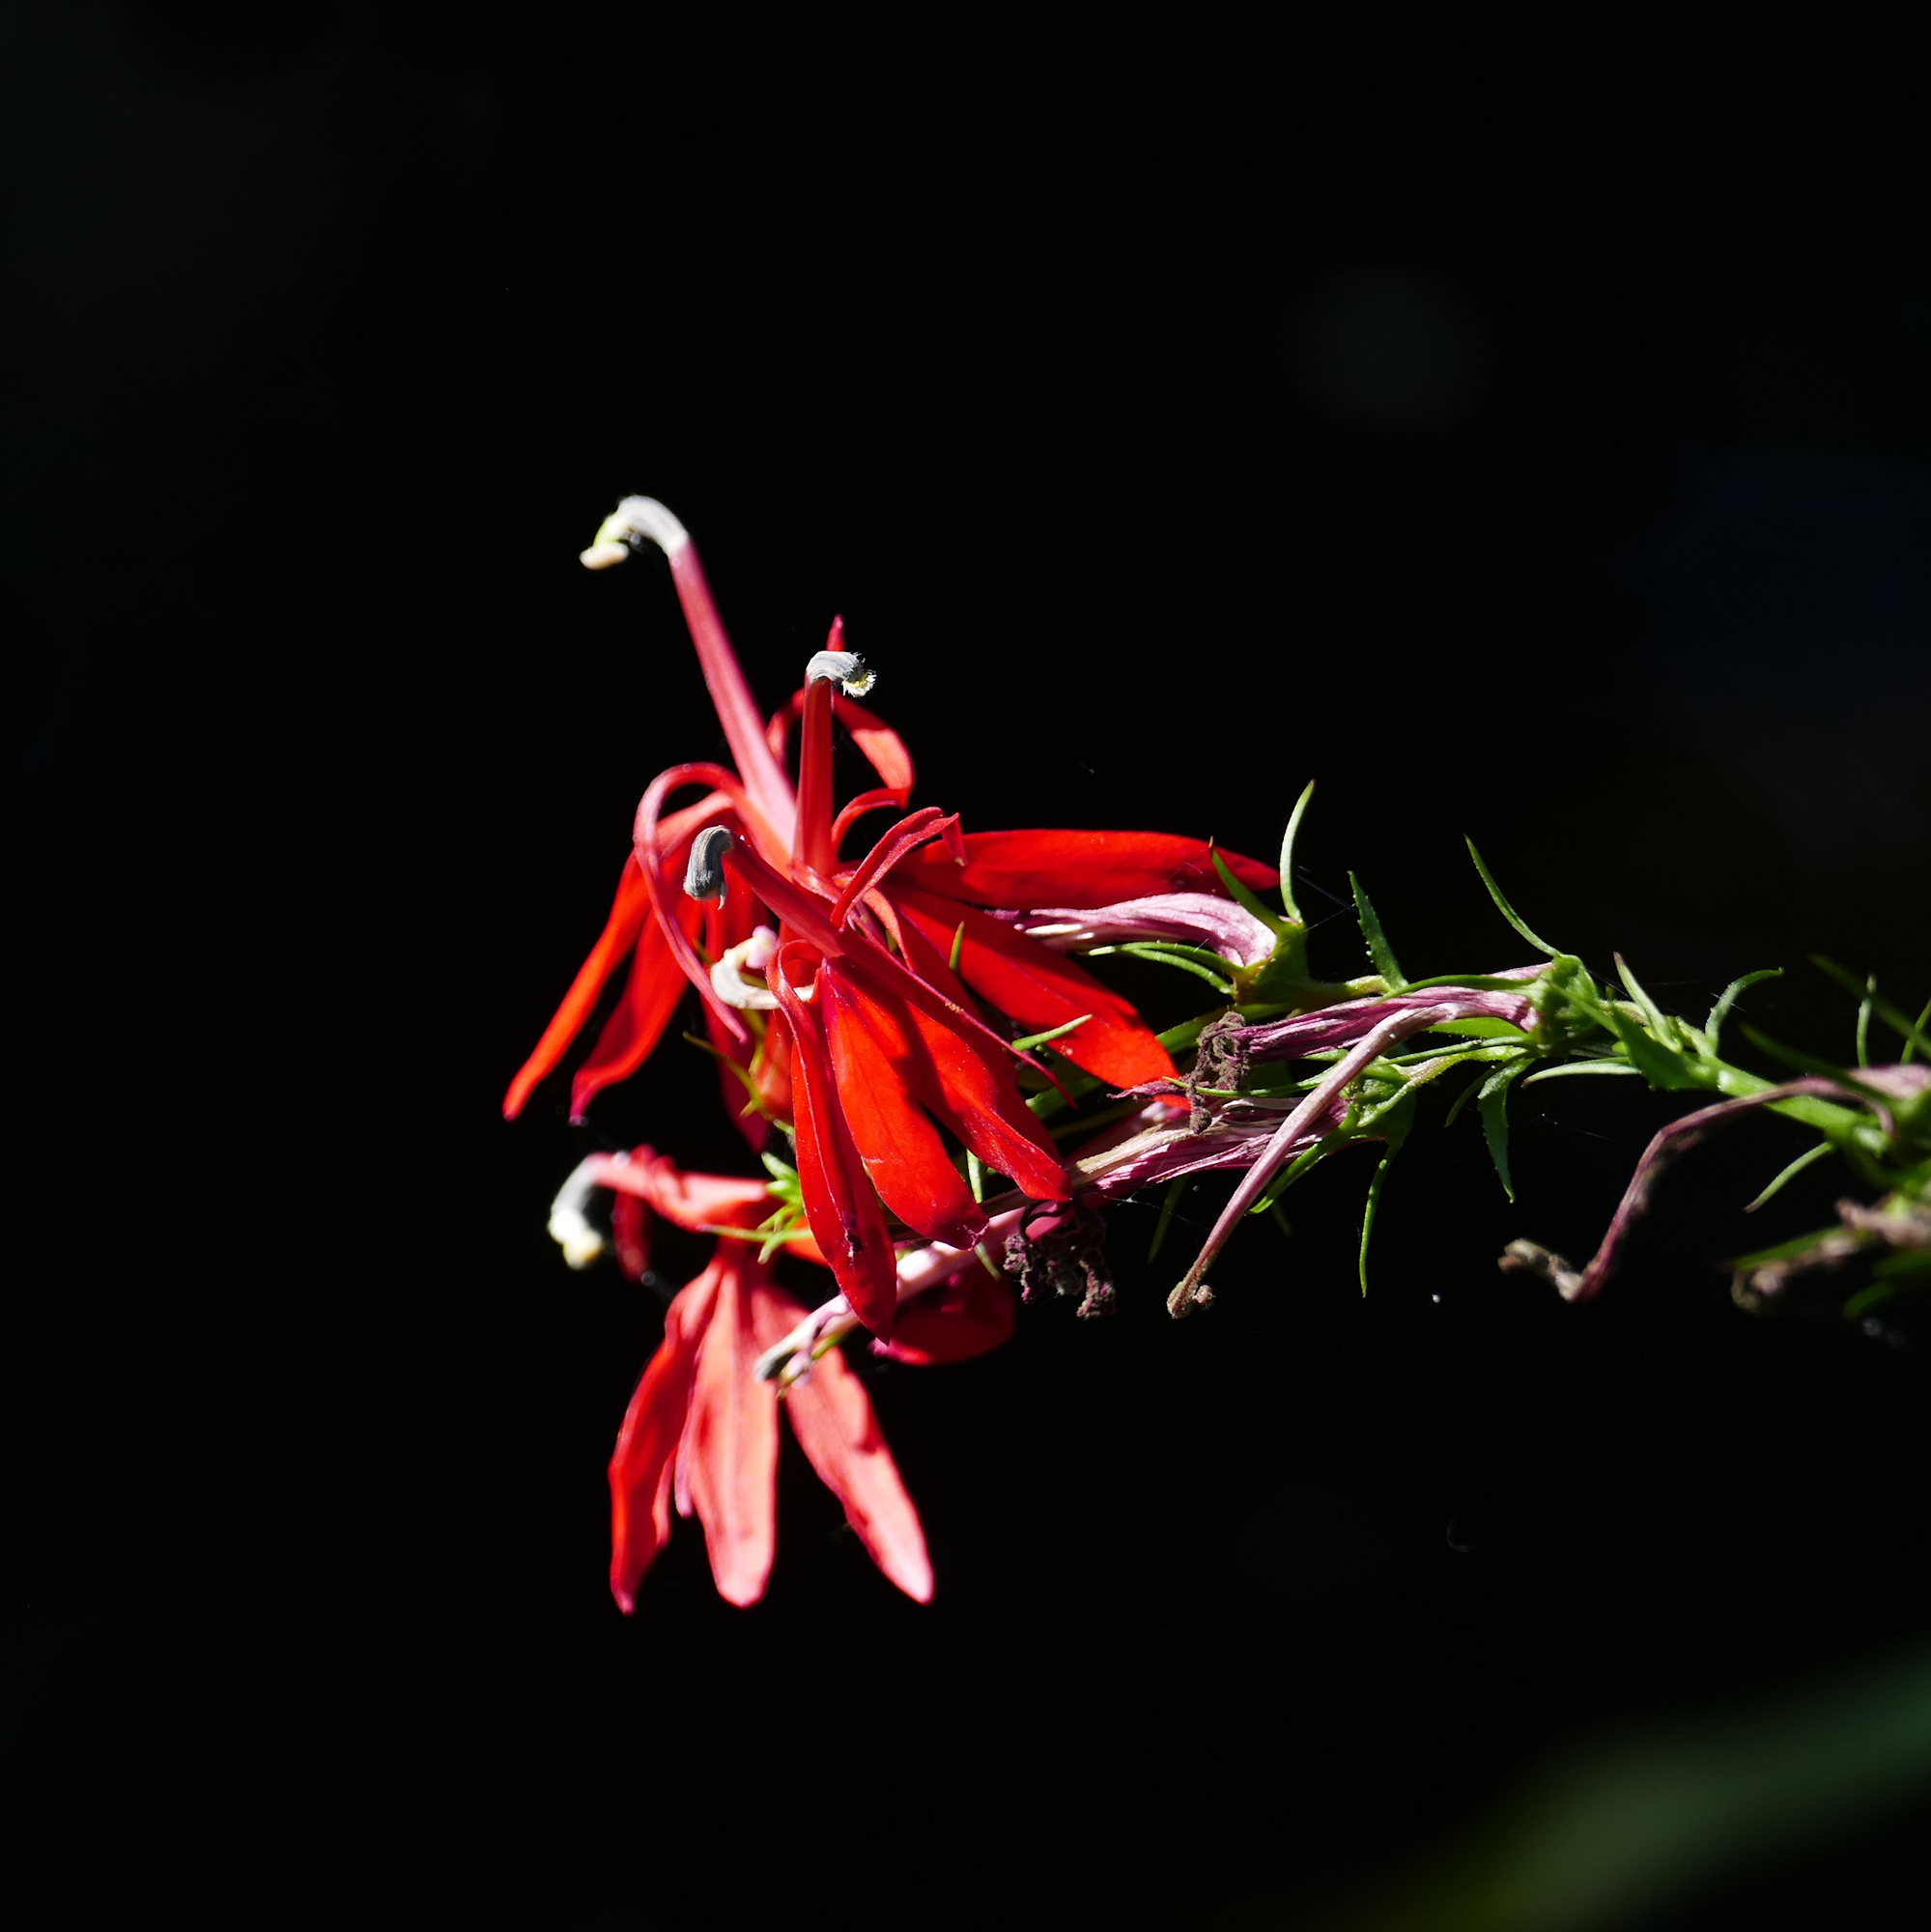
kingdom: Plantae
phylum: Tracheophyta
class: Magnoliopsida
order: Asterales
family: Campanulaceae
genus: Lobelia
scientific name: Lobelia cardinalis
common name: Cardinal flower
